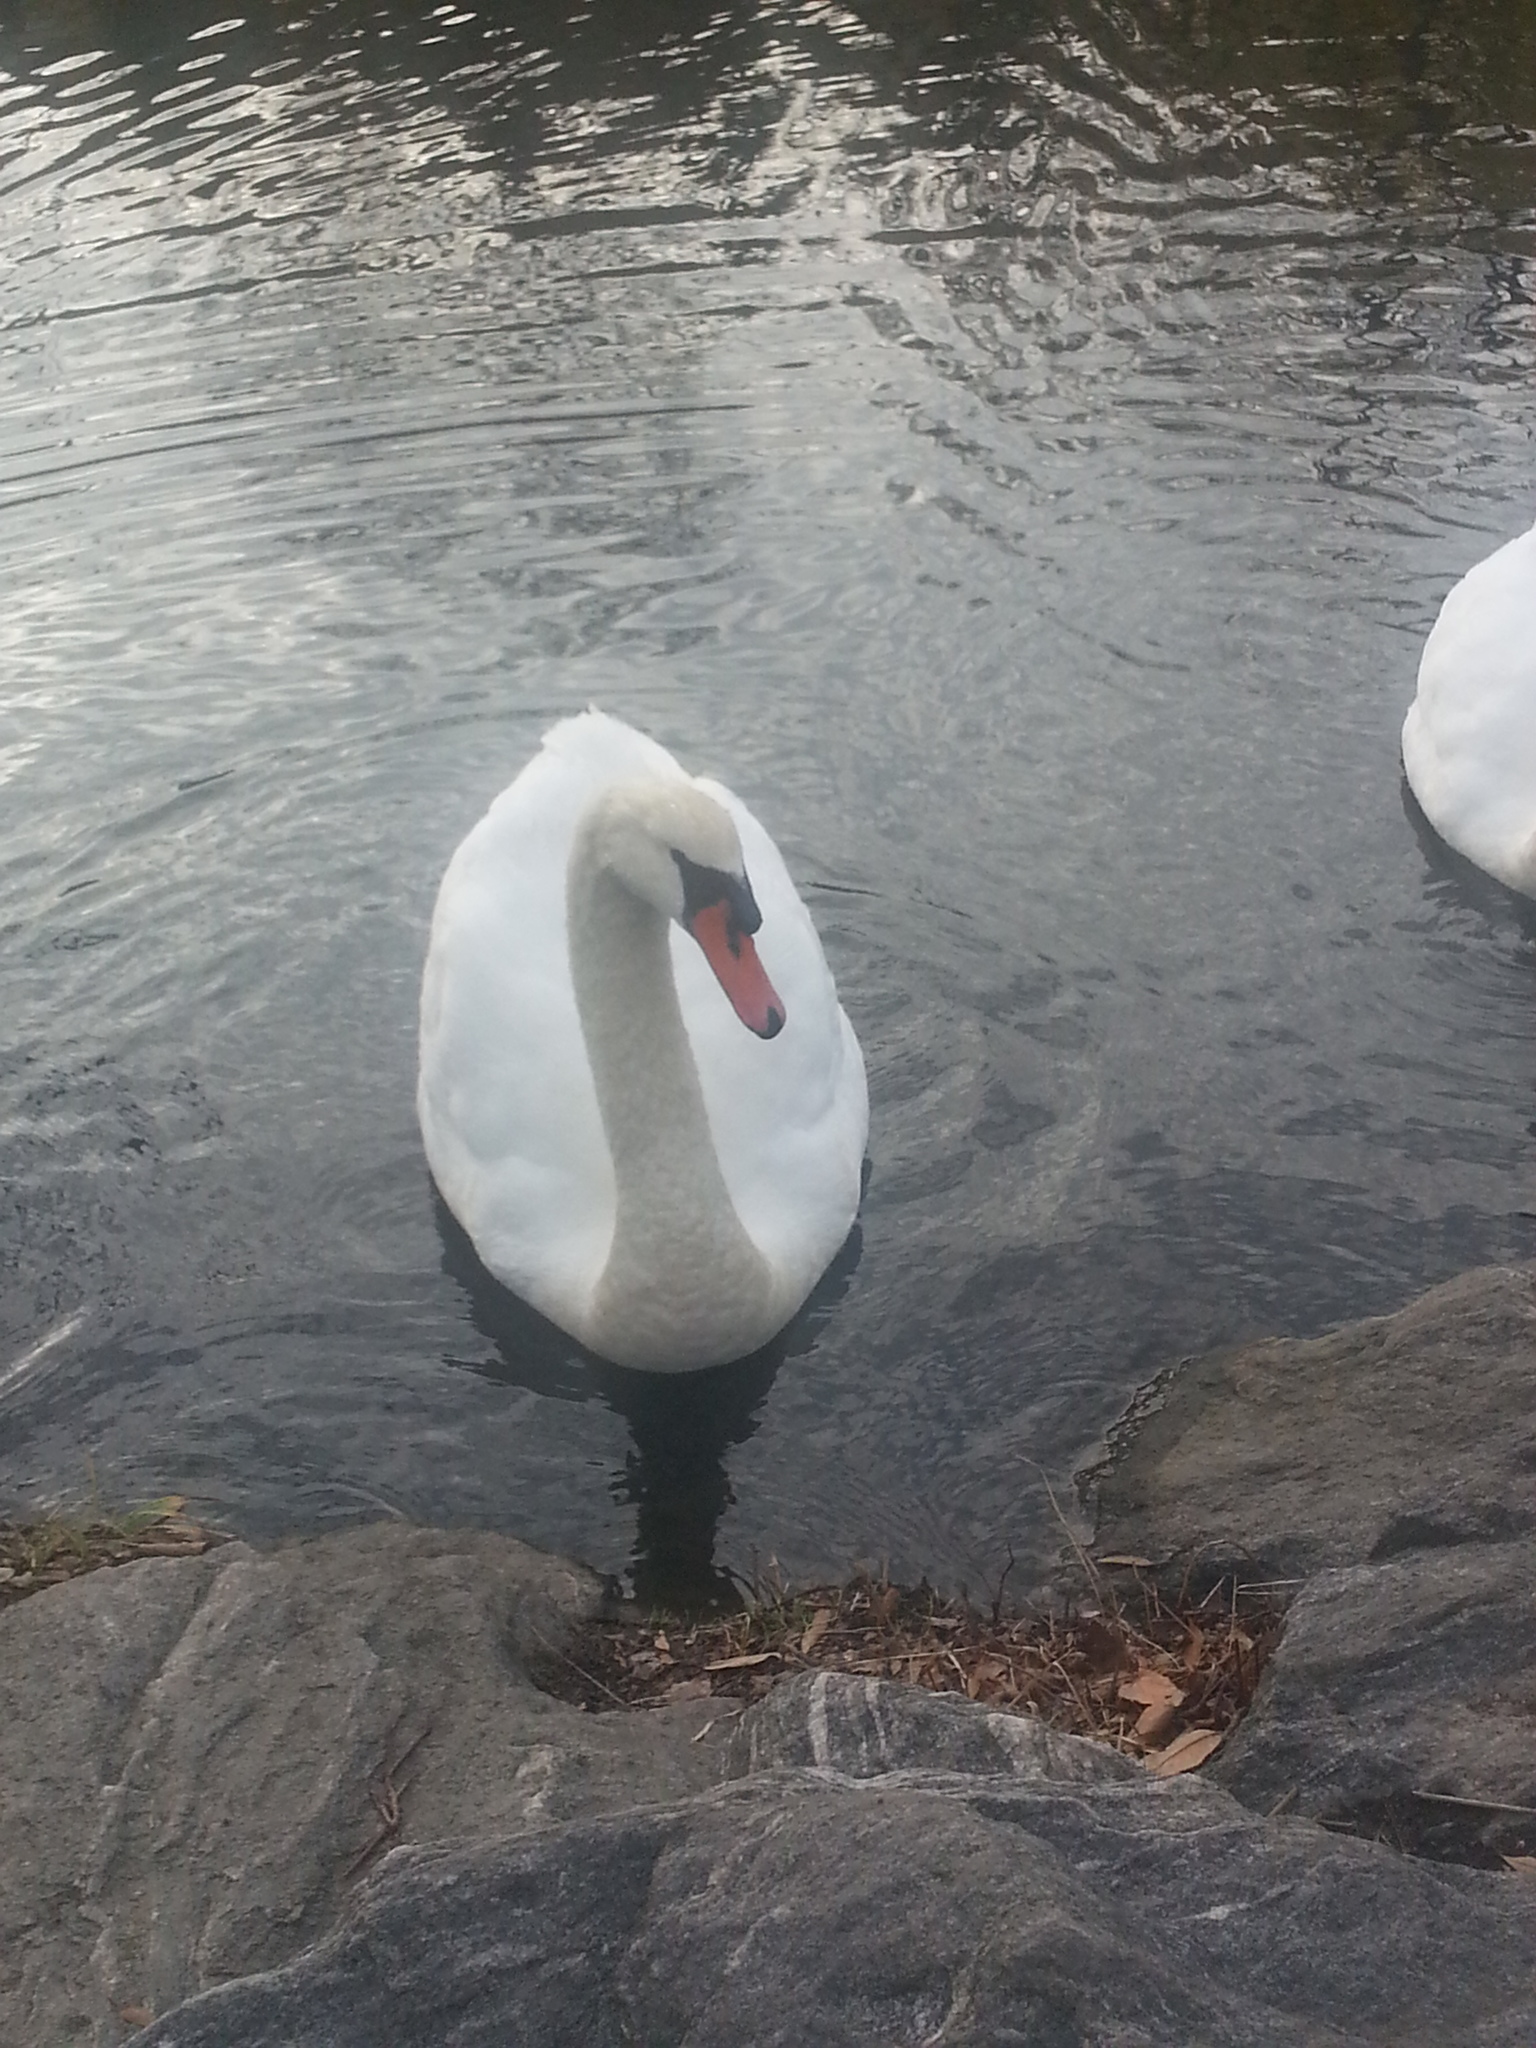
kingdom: Animalia
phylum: Chordata
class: Aves
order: Anseriformes
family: Anatidae
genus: Cygnus
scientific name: Cygnus olor
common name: Mute swan
